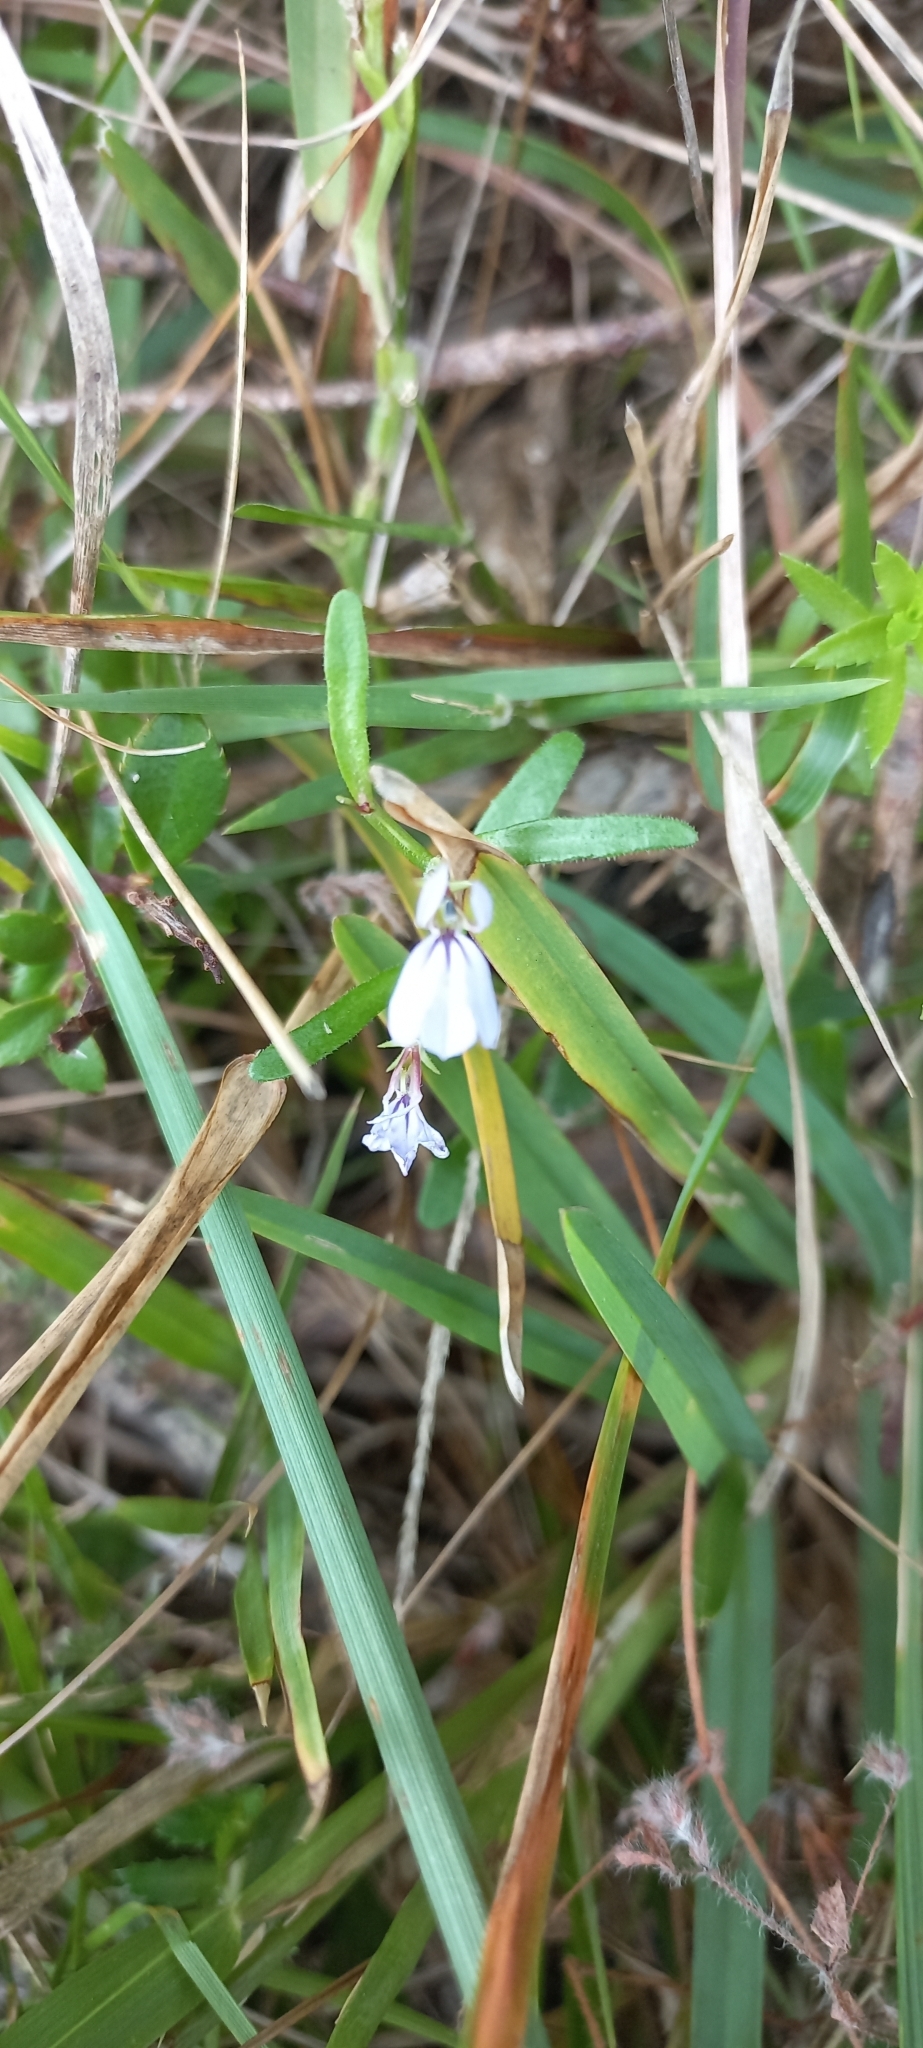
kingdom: Plantae
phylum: Tracheophyta
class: Magnoliopsida
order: Asterales
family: Campanulaceae
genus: Lobelia
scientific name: Lobelia anceps
